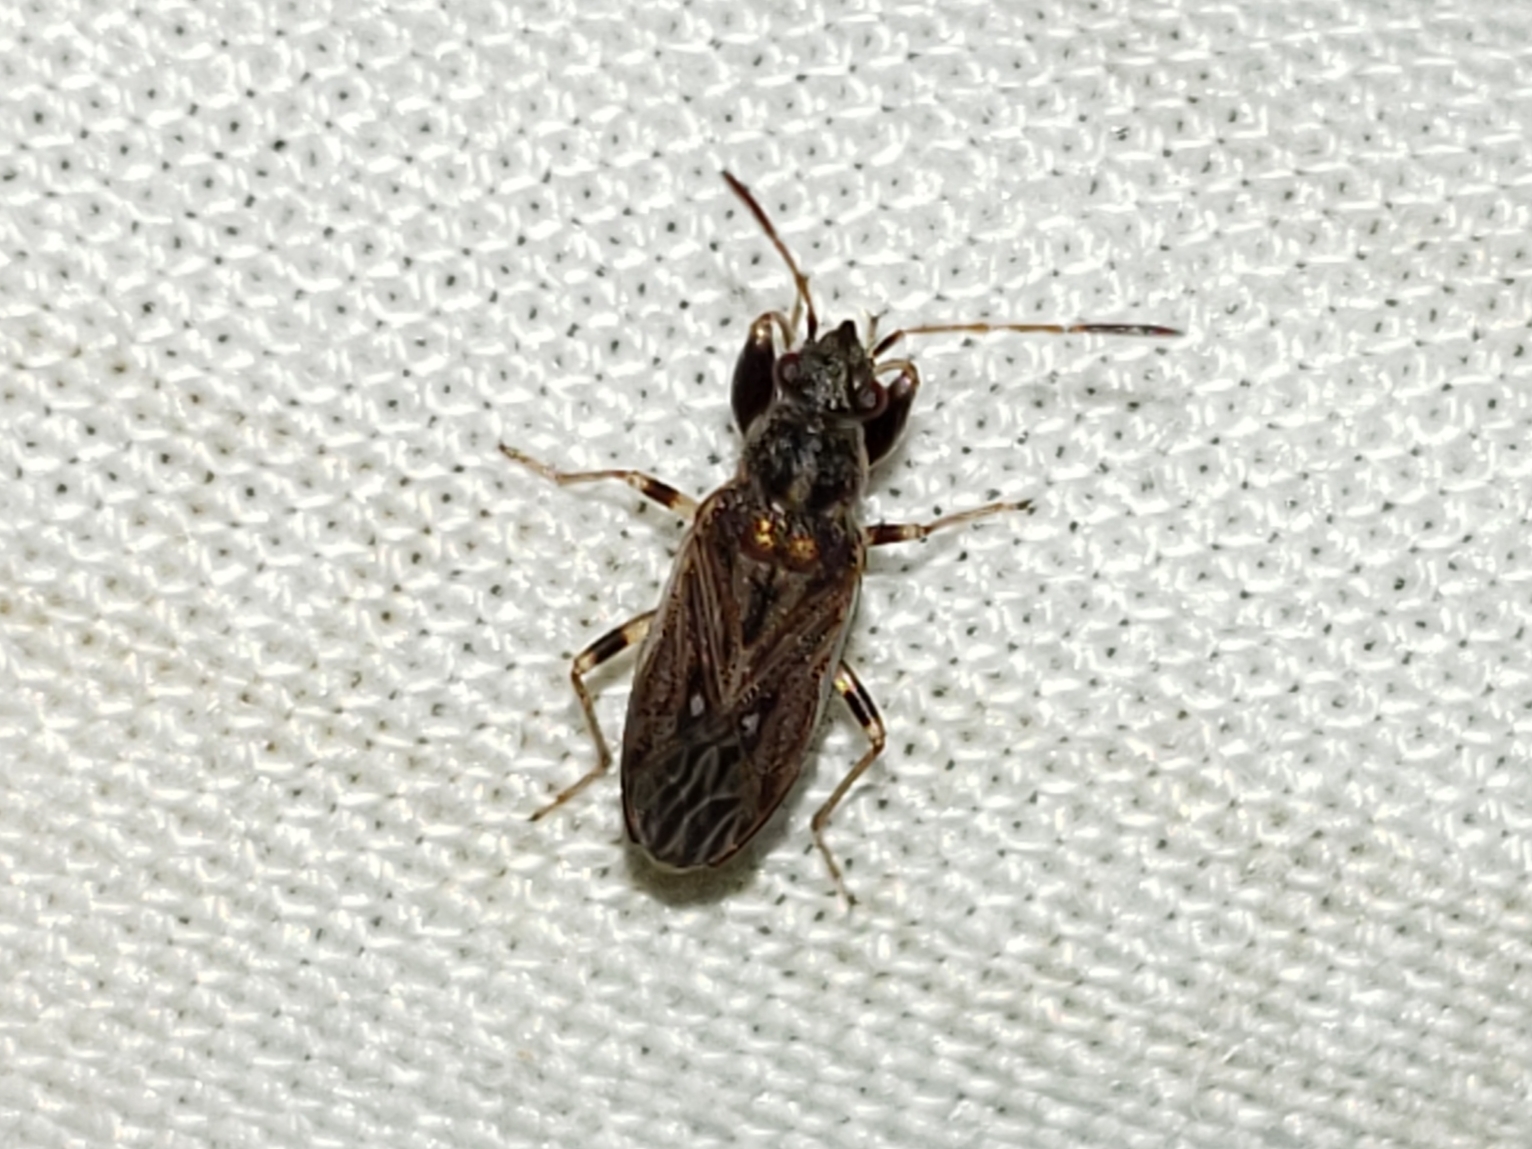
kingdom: Animalia
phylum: Arthropoda
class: Insecta
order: Hemiptera
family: Rhyparochromidae
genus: Pseudopachybrachius
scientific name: Pseudopachybrachius basalis
